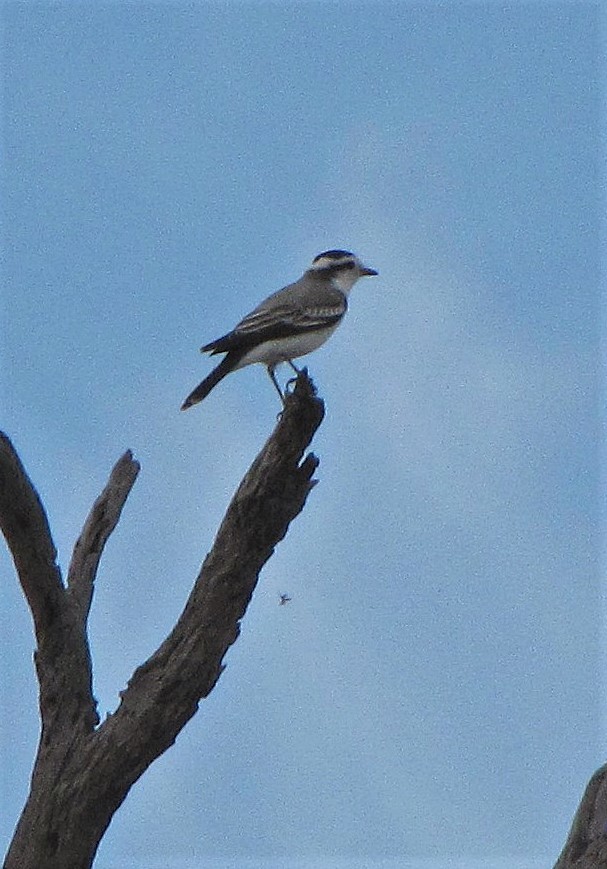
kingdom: Animalia
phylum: Chordata
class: Aves
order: Passeriformes
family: Tyrannidae
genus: Xolmis
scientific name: Xolmis coronatus
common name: Black-crowned monjita
